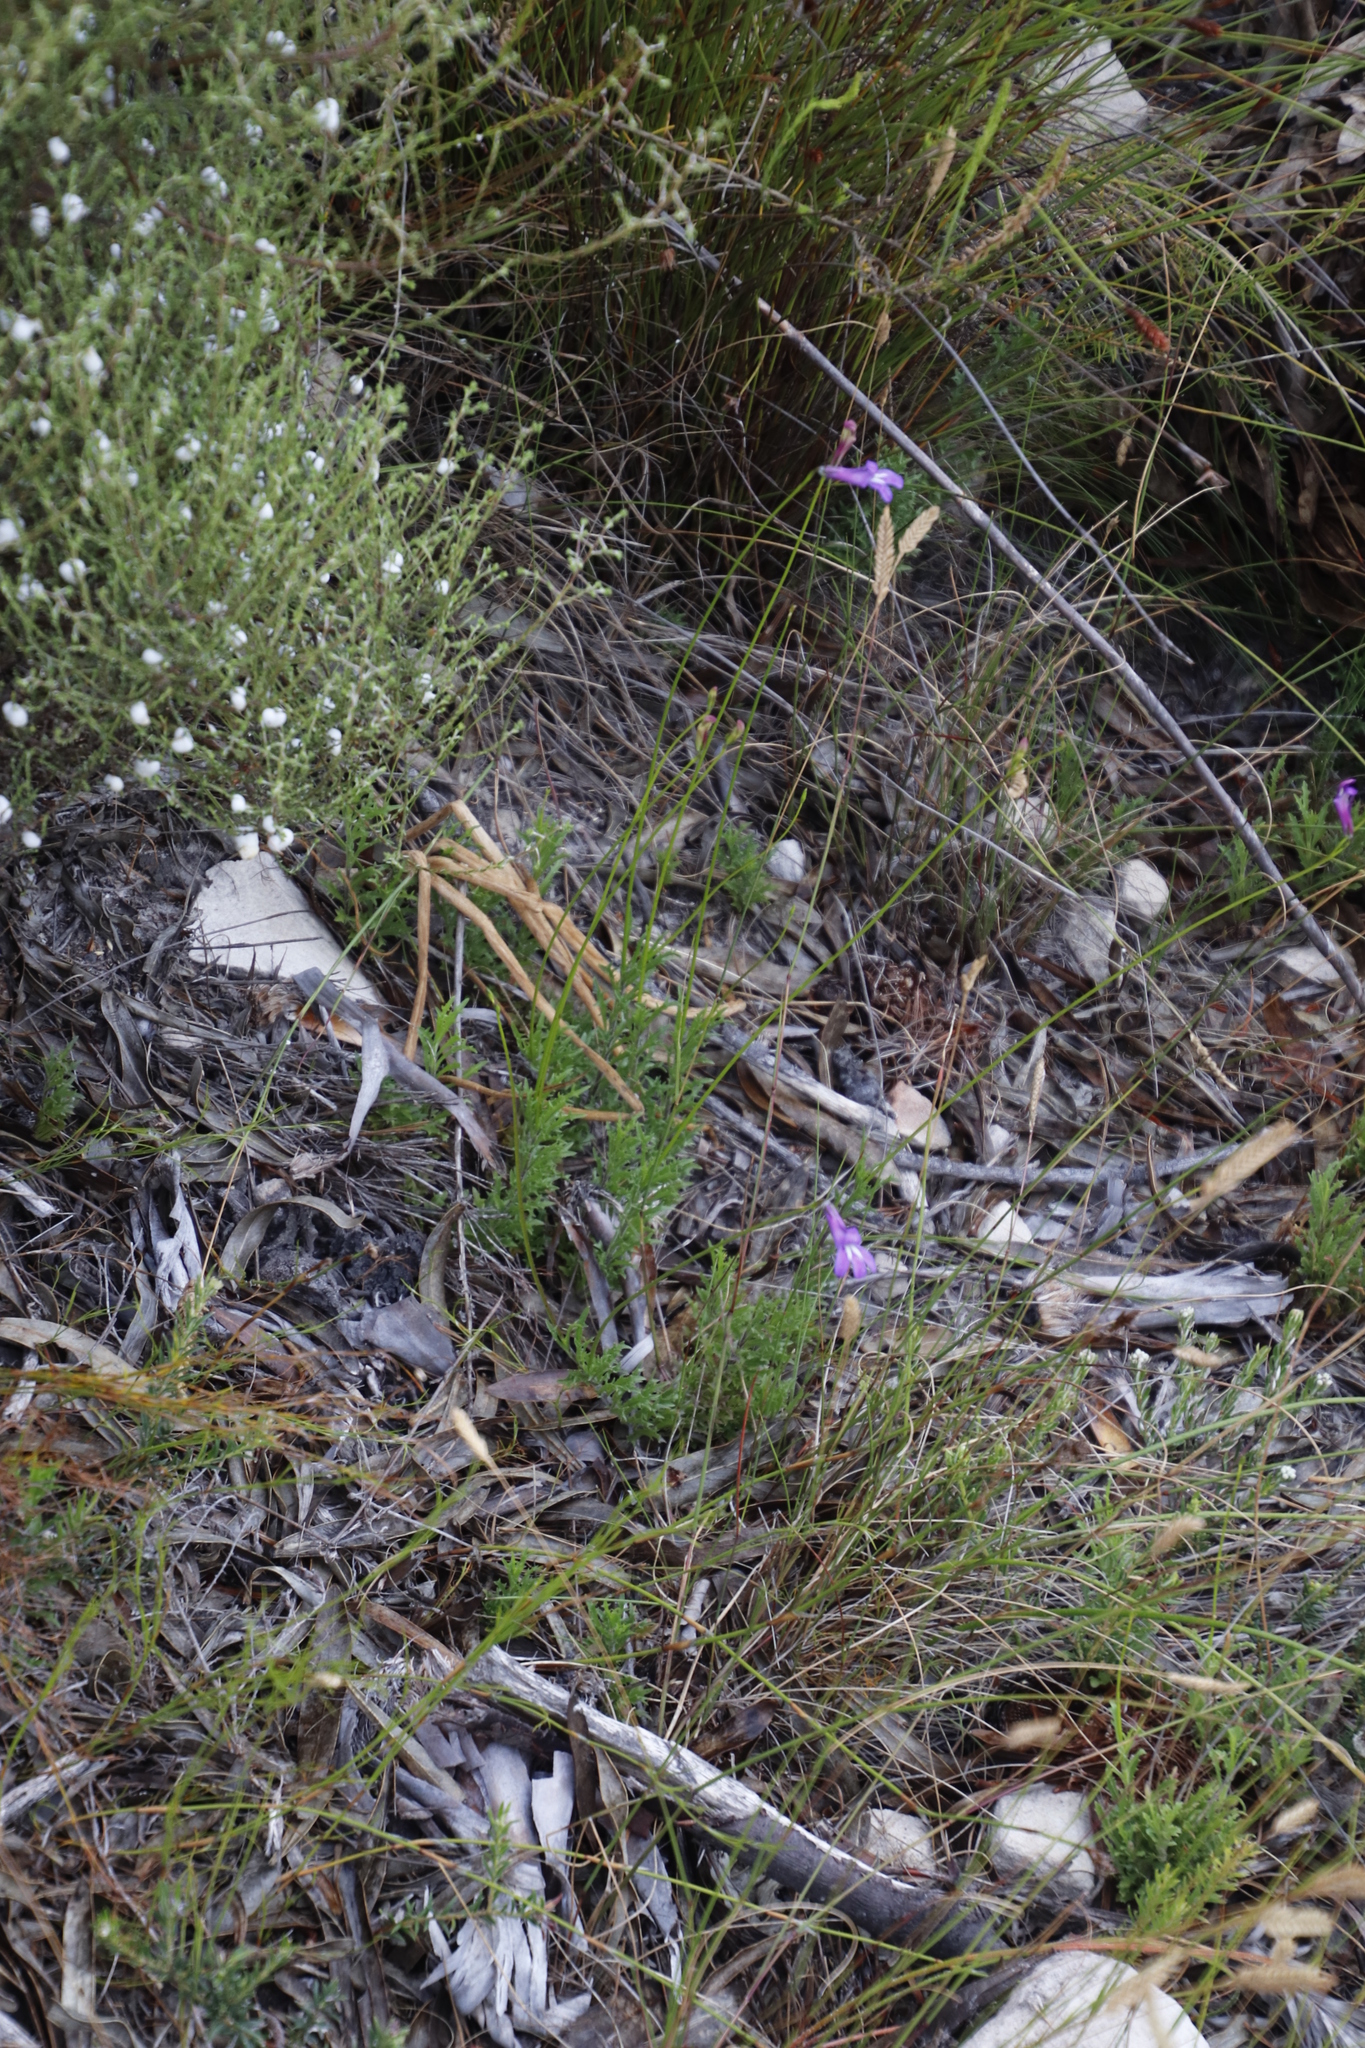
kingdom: Plantae
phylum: Tracheophyta
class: Magnoliopsida
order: Asterales
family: Campanulaceae
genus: Lobelia
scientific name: Lobelia coronopifolia
